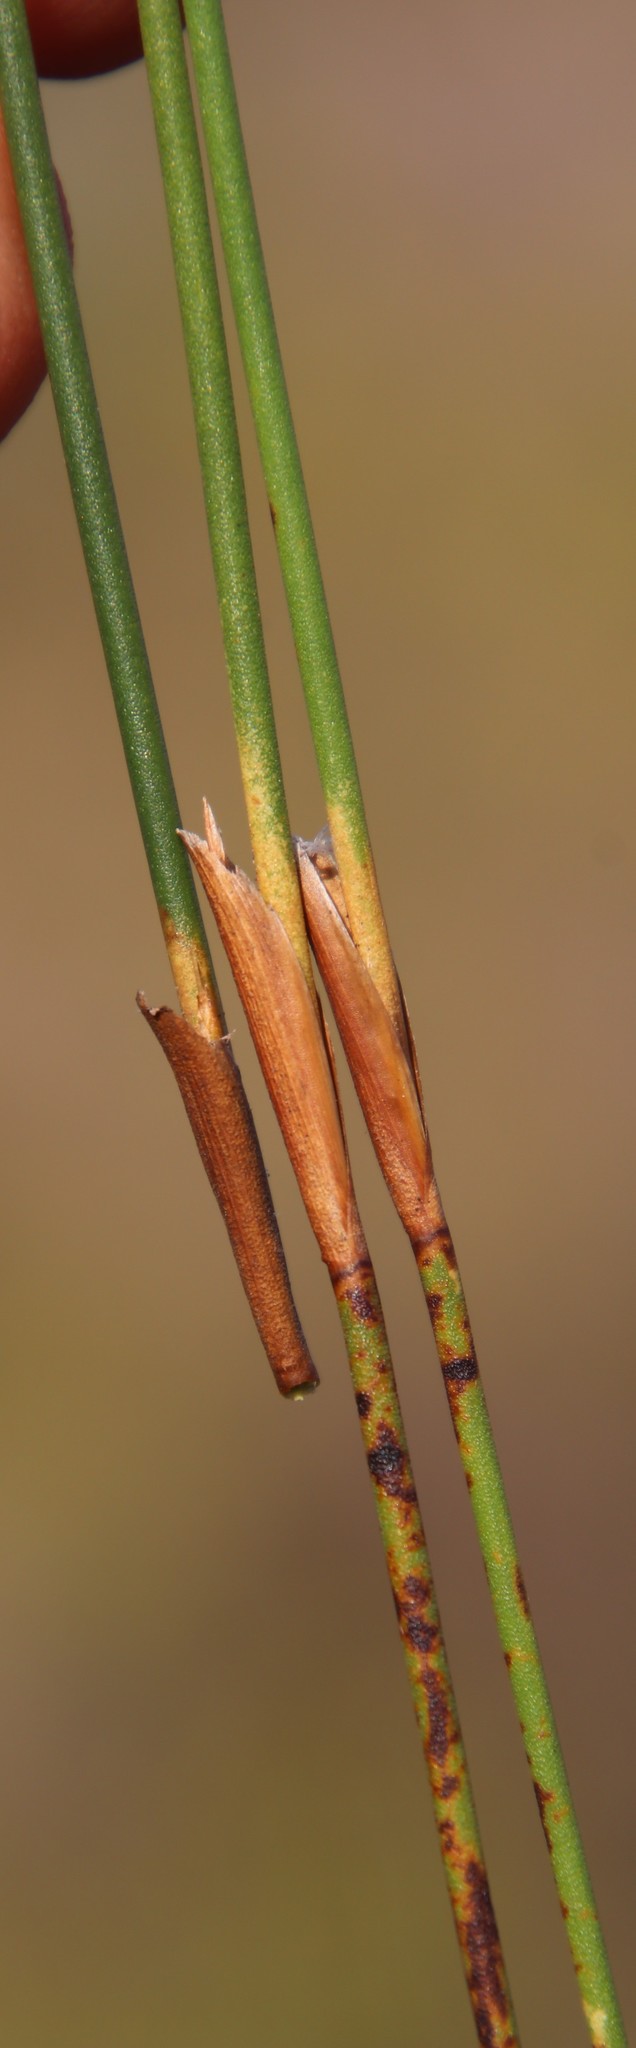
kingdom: Plantae
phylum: Tracheophyta
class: Liliopsida
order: Poales
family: Restionaceae
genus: Restio
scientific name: Restio capensis
